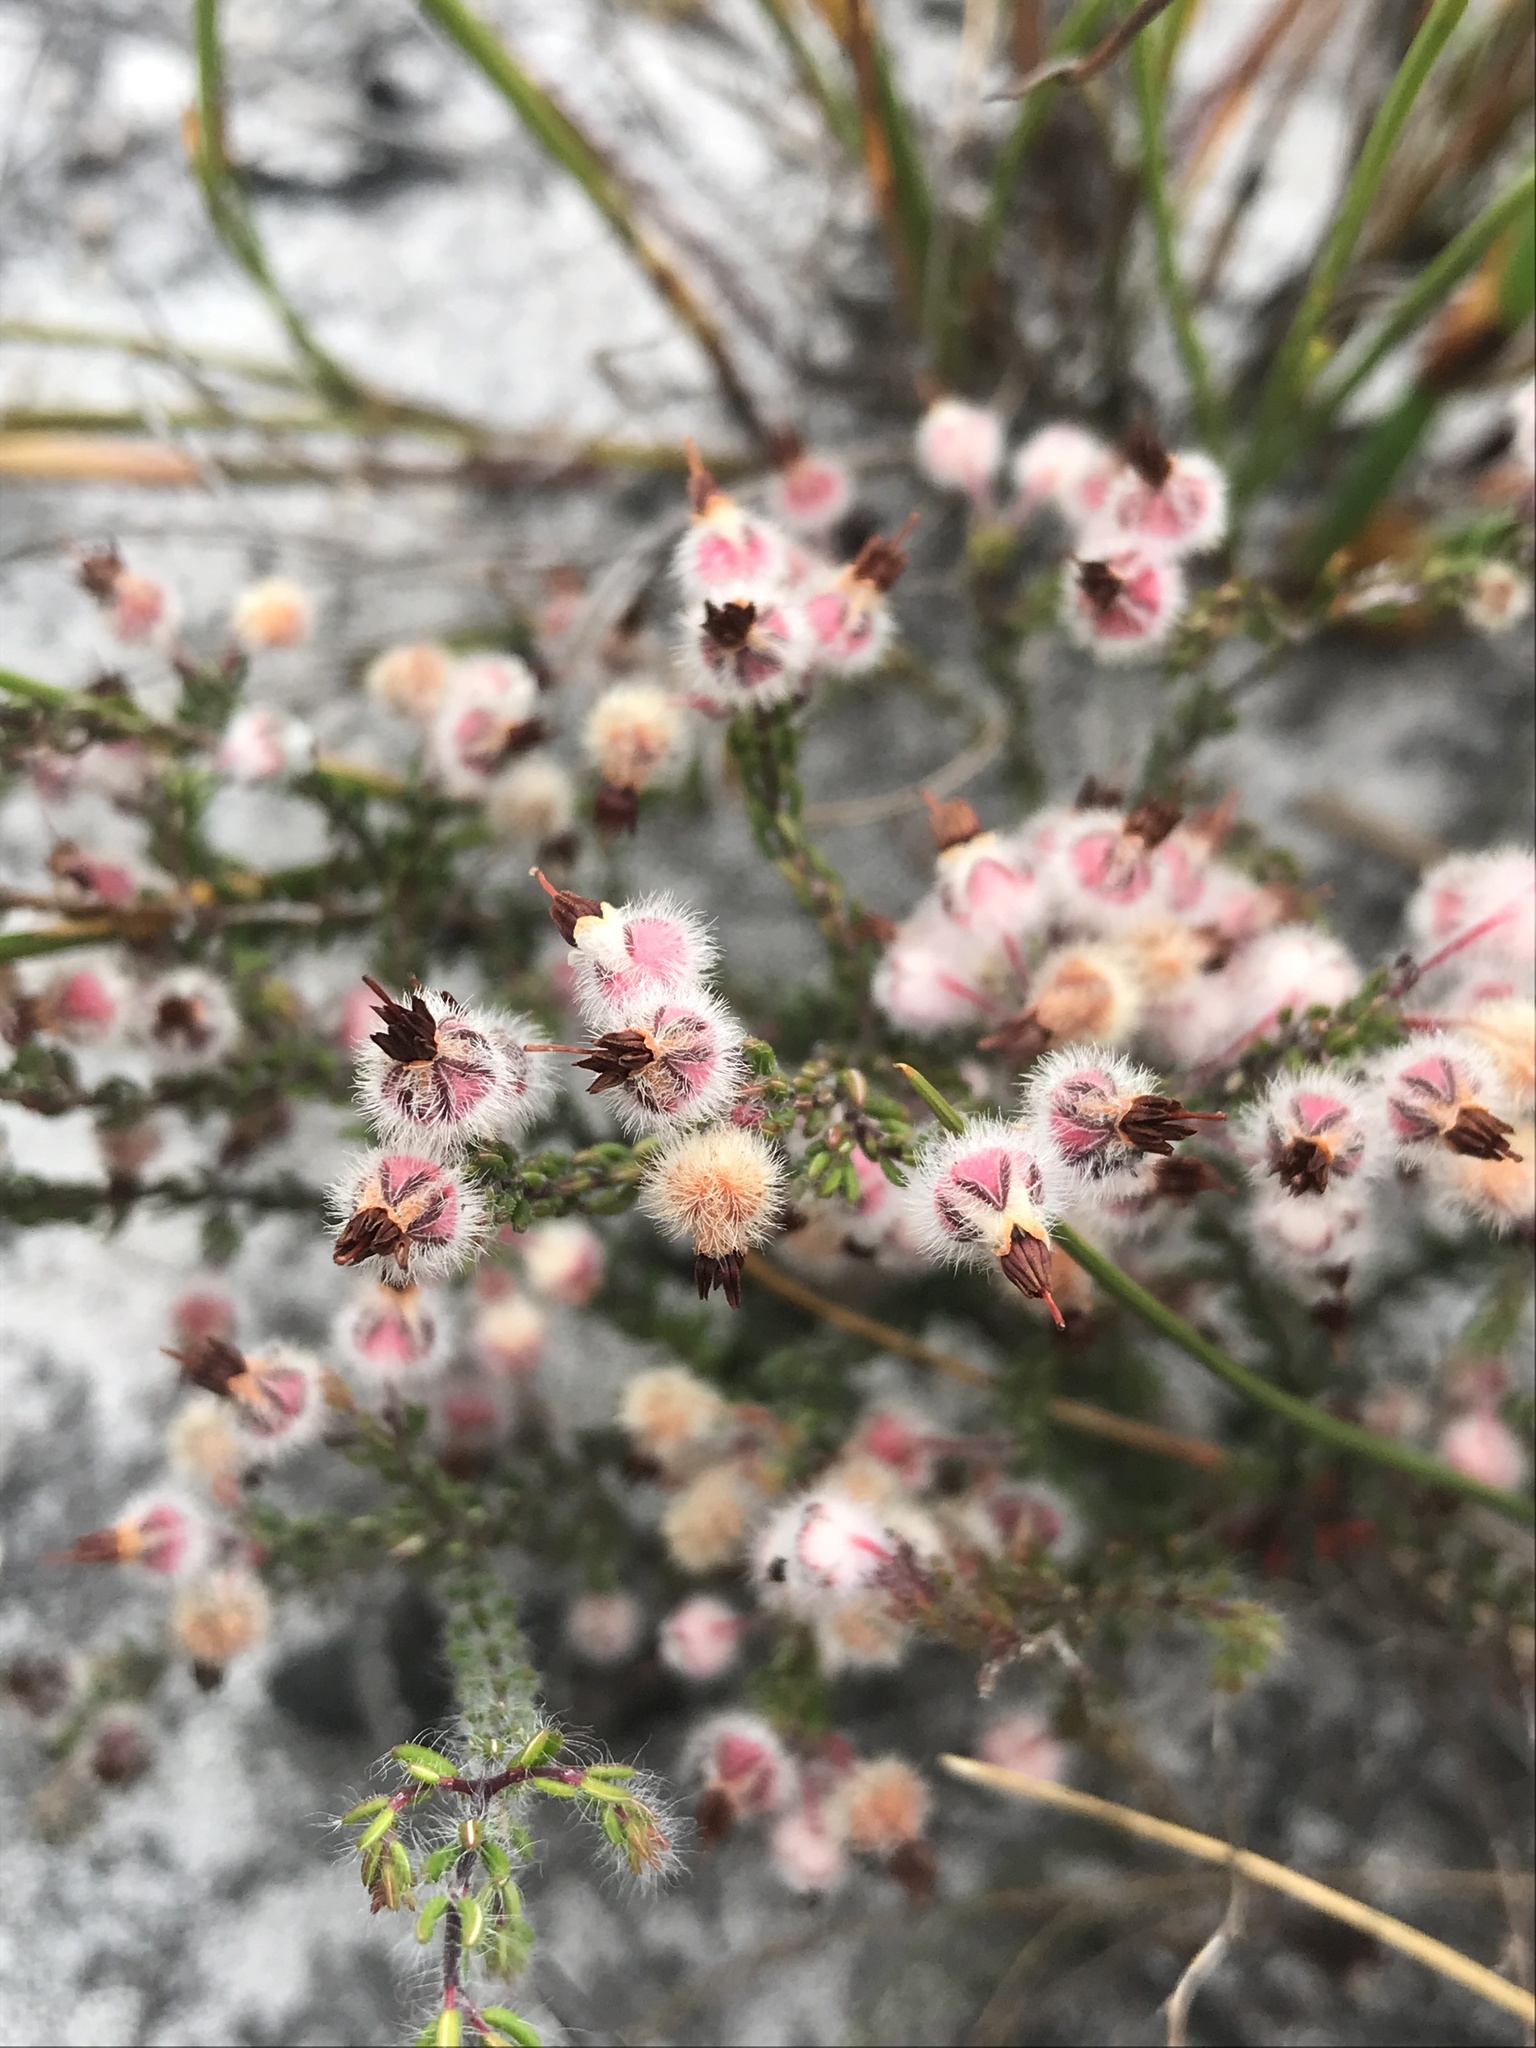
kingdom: Plantae
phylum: Tracheophyta
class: Magnoliopsida
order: Ericales
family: Ericaceae
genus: Erica
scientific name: Erica bruniades
